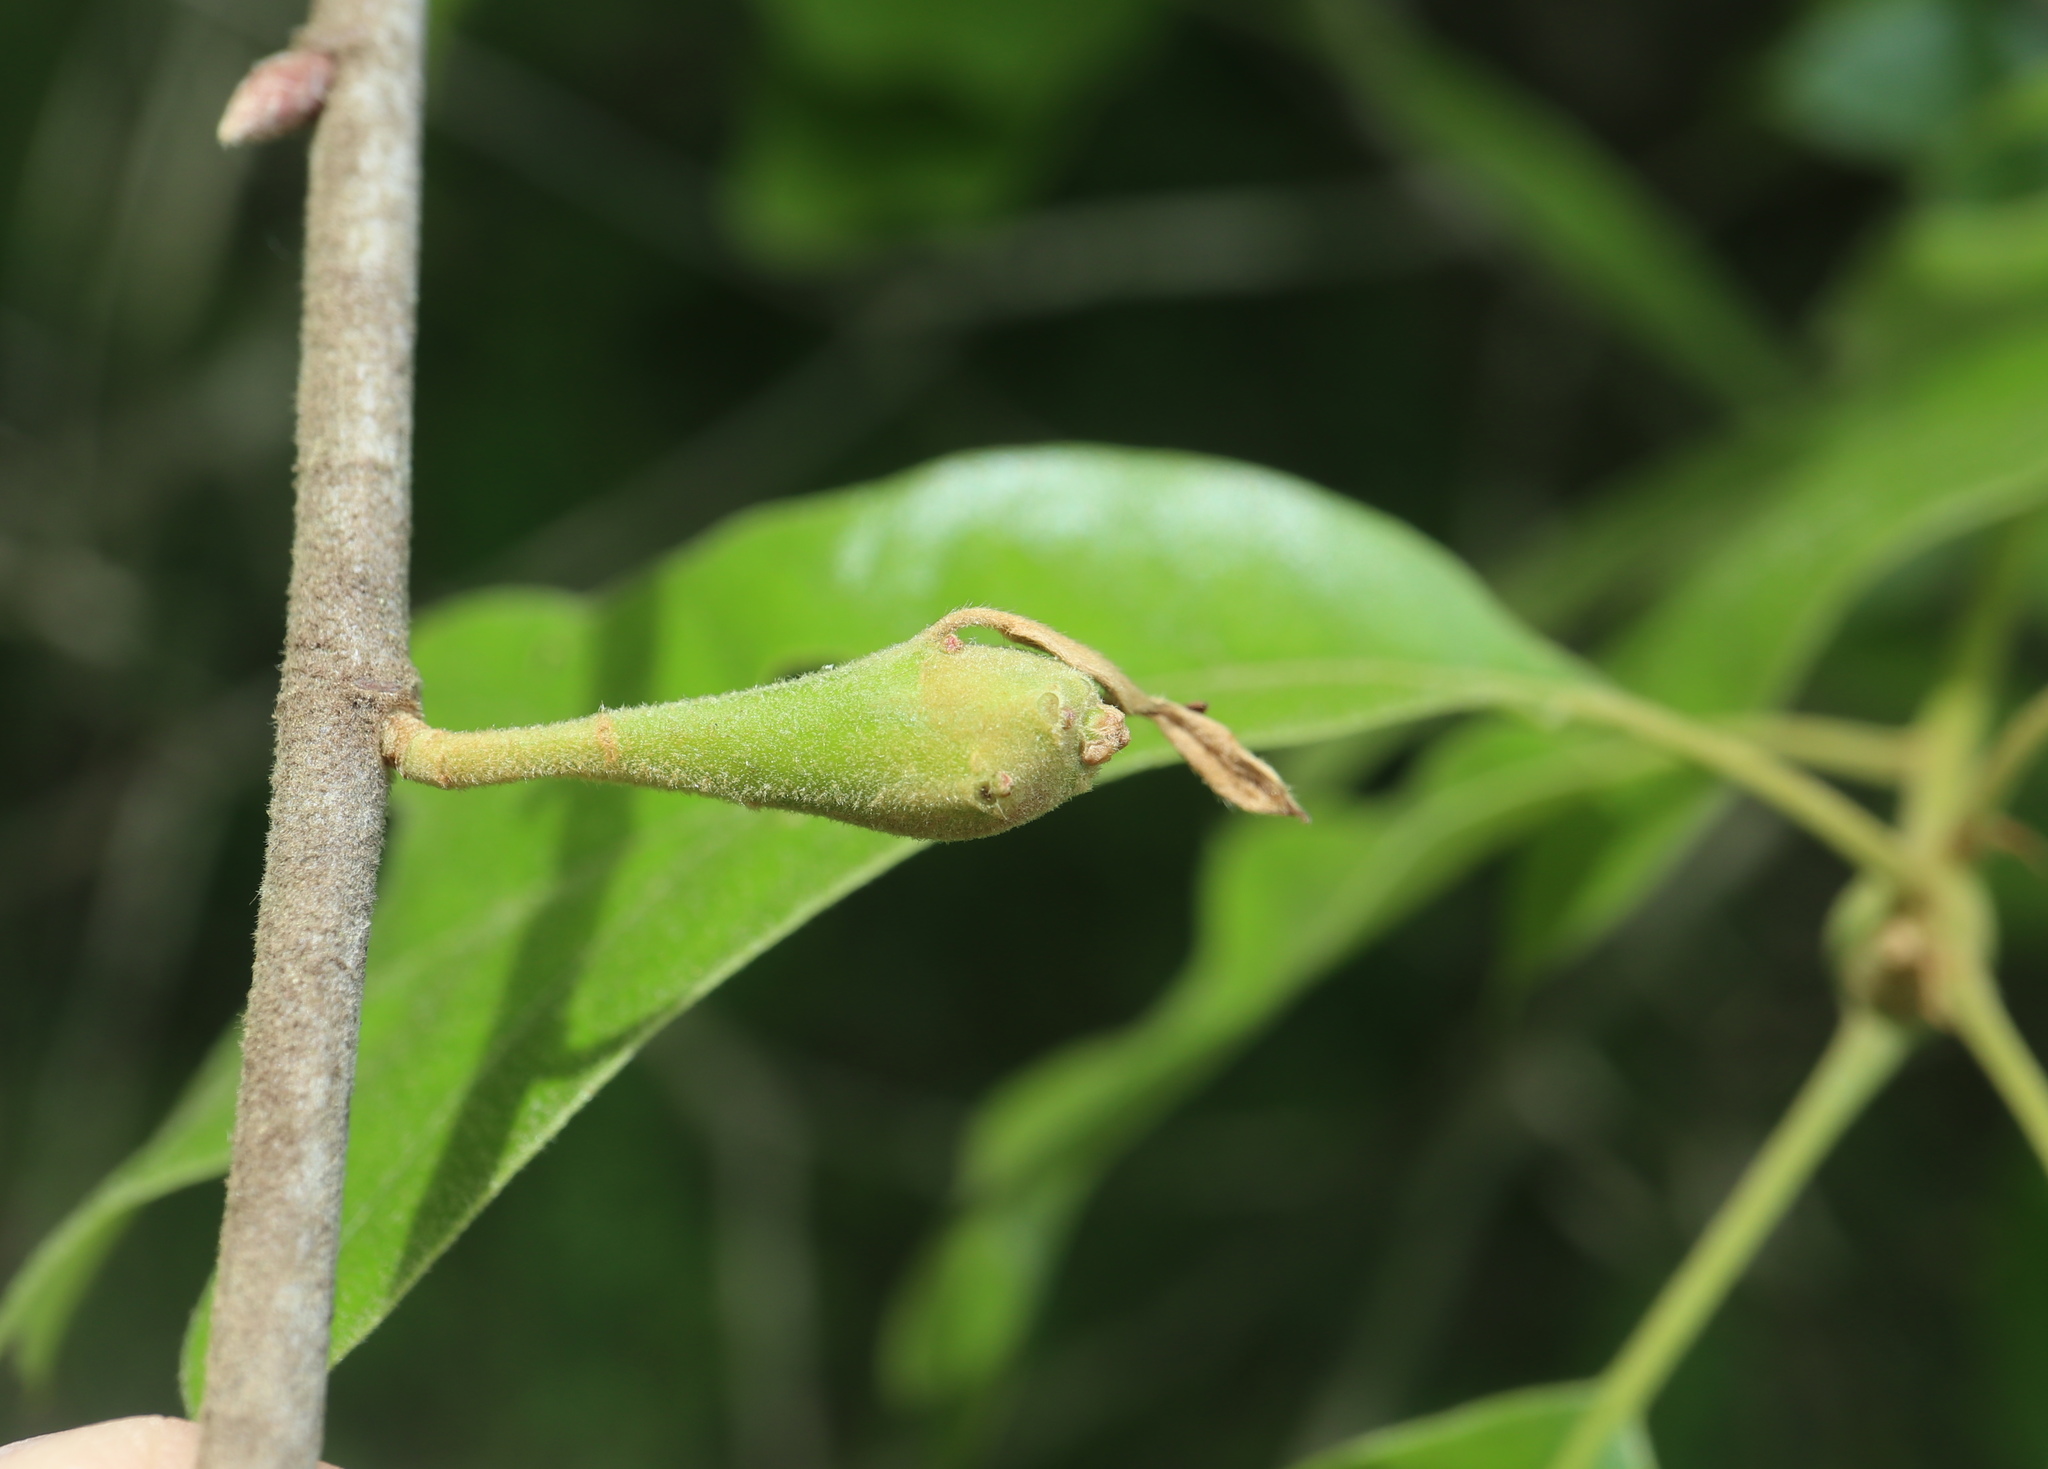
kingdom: Animalia
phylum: Arthropoda
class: Insecta
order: Hymenoptera
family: Cynipidae
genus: Zapatella
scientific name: Zapatella quercusphellos
